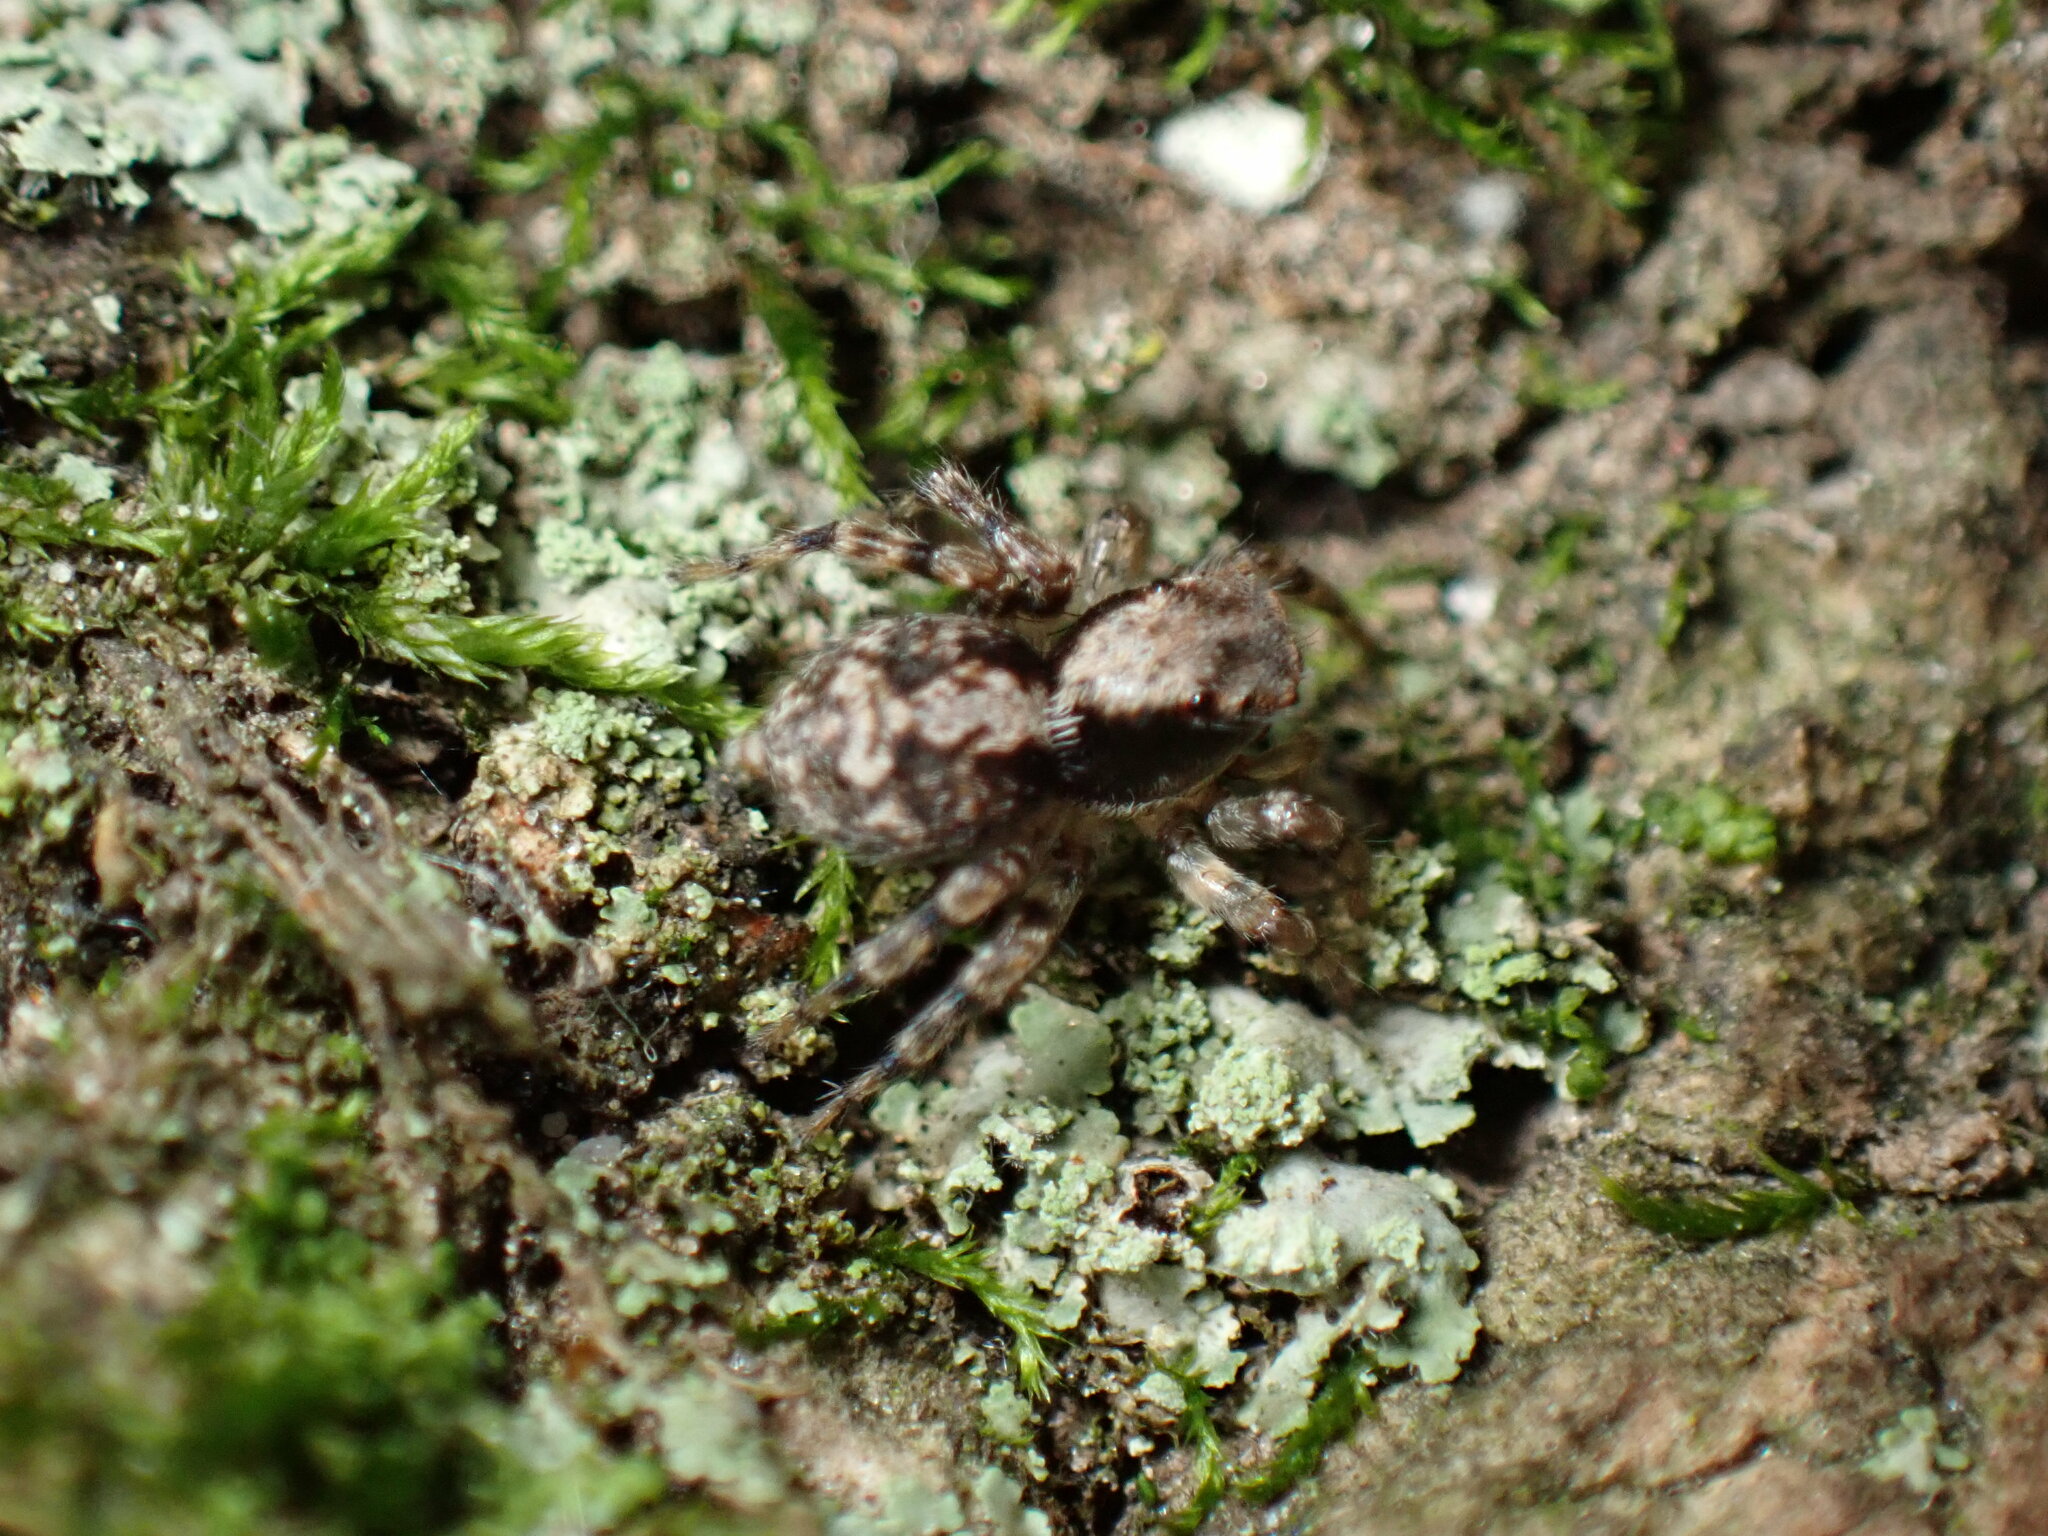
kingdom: Animalia
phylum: Arthropoda
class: Arachnida
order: Araneae
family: Salticidae
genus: Naphrys
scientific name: Naphrys pulex
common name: Flea jumping spider
